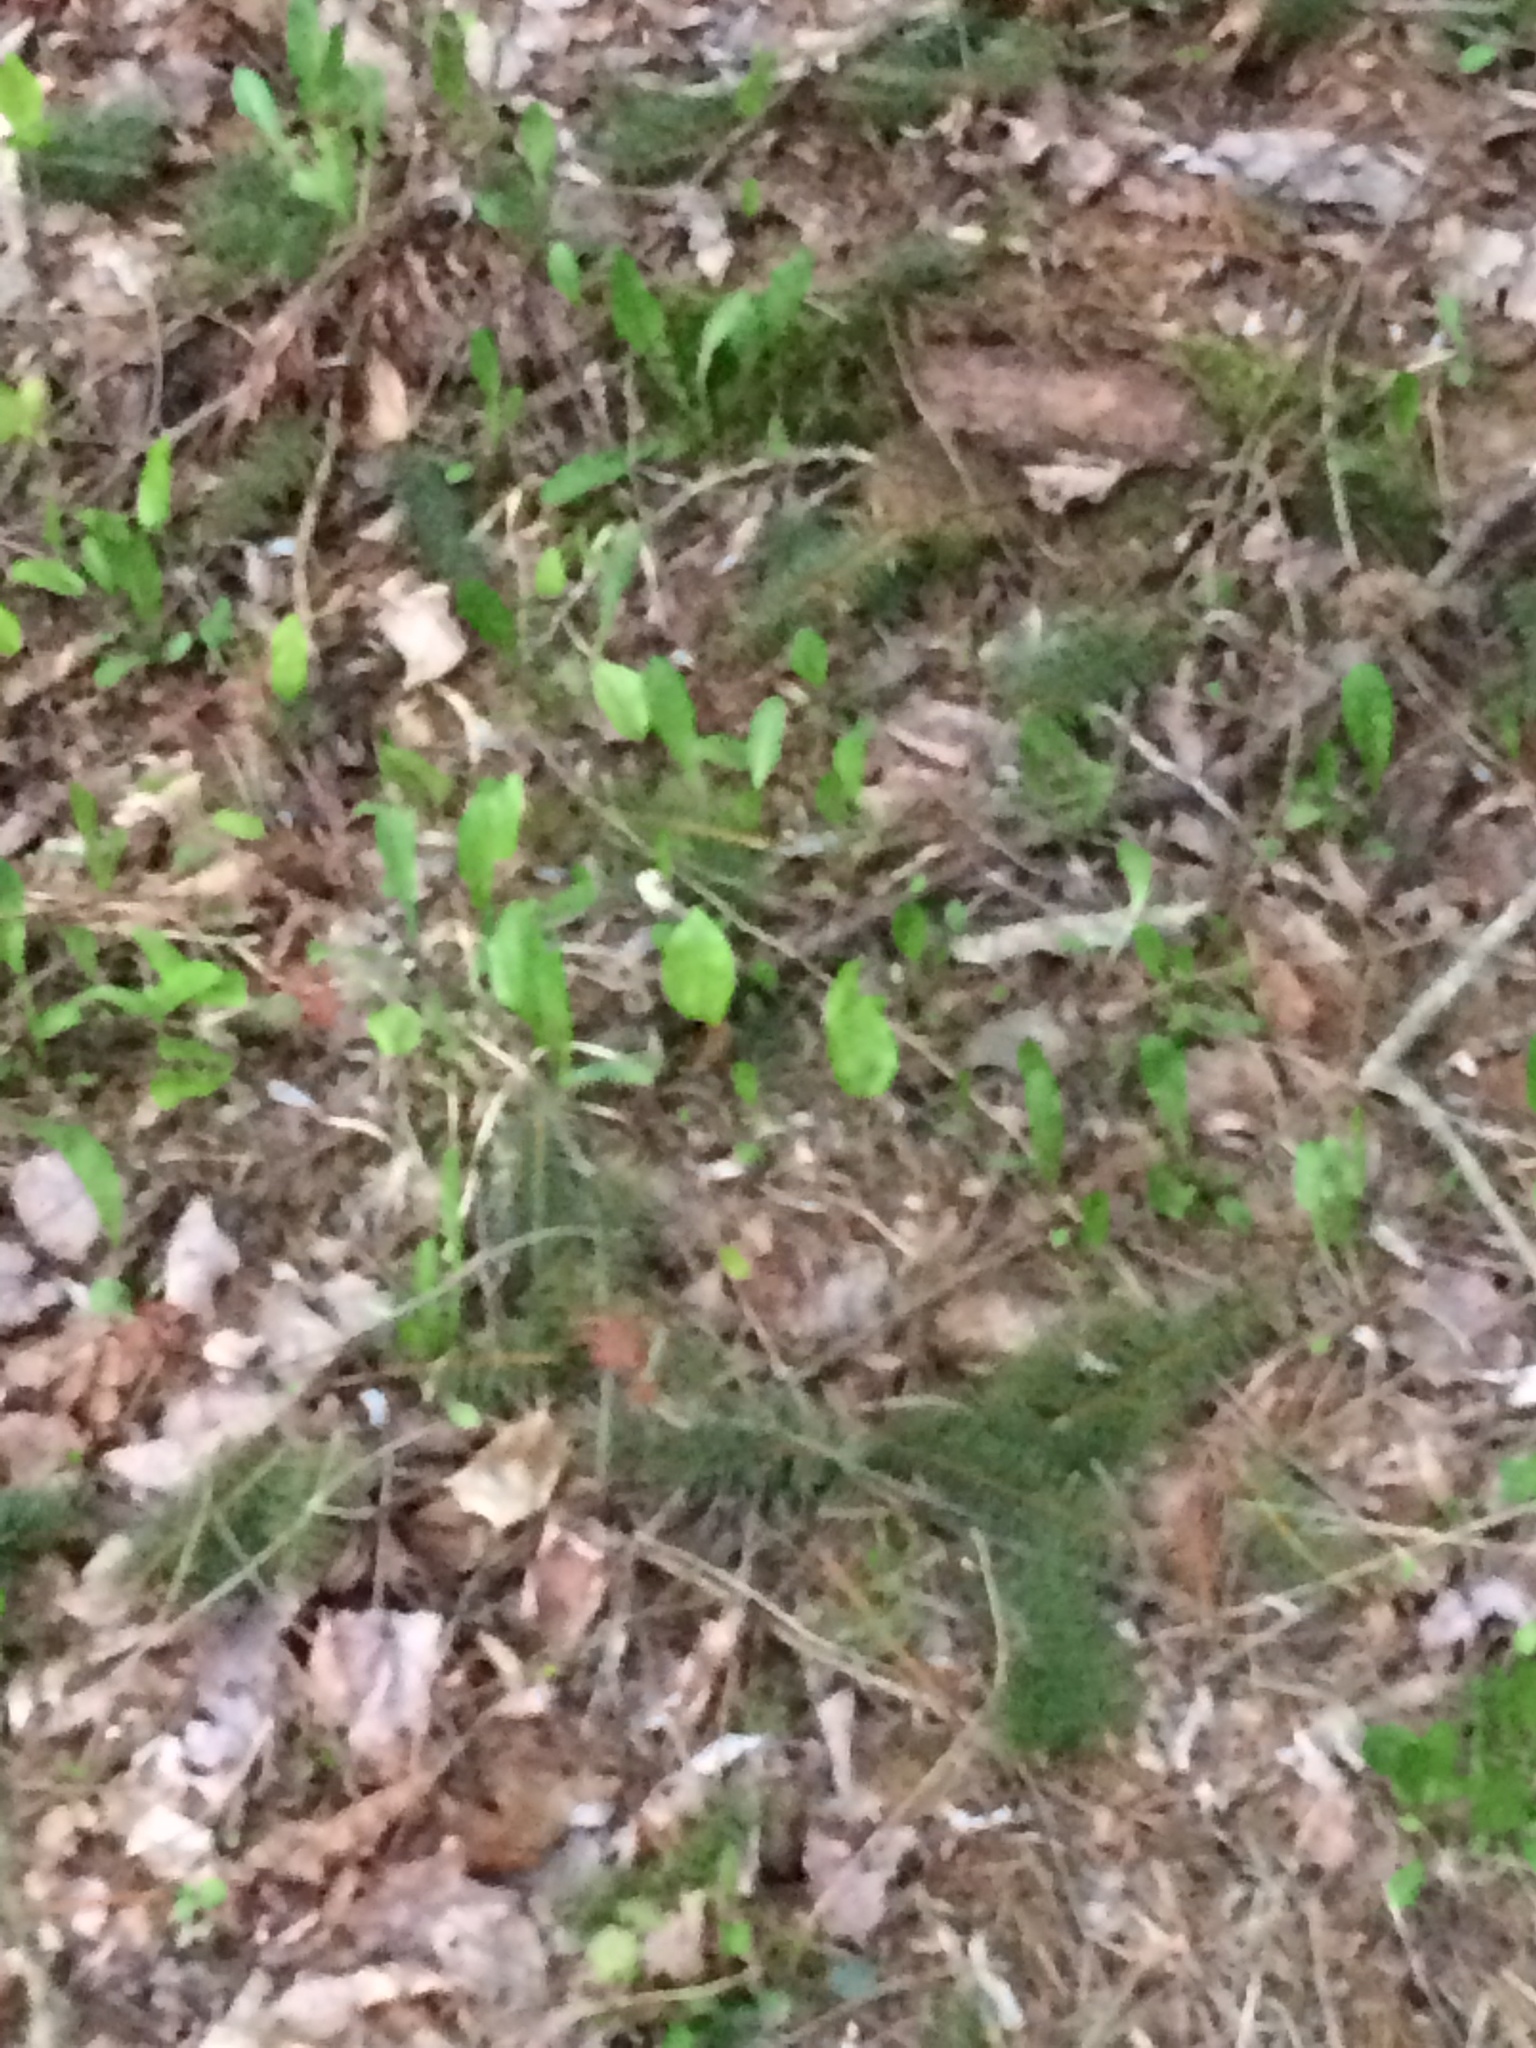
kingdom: Plantae
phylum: Tracheophyta
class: Liliopsida
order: Asparagales
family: Asparagaceae
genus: Maianthemum
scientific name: Maianthemum canadense
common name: False lily-of-the-valley
